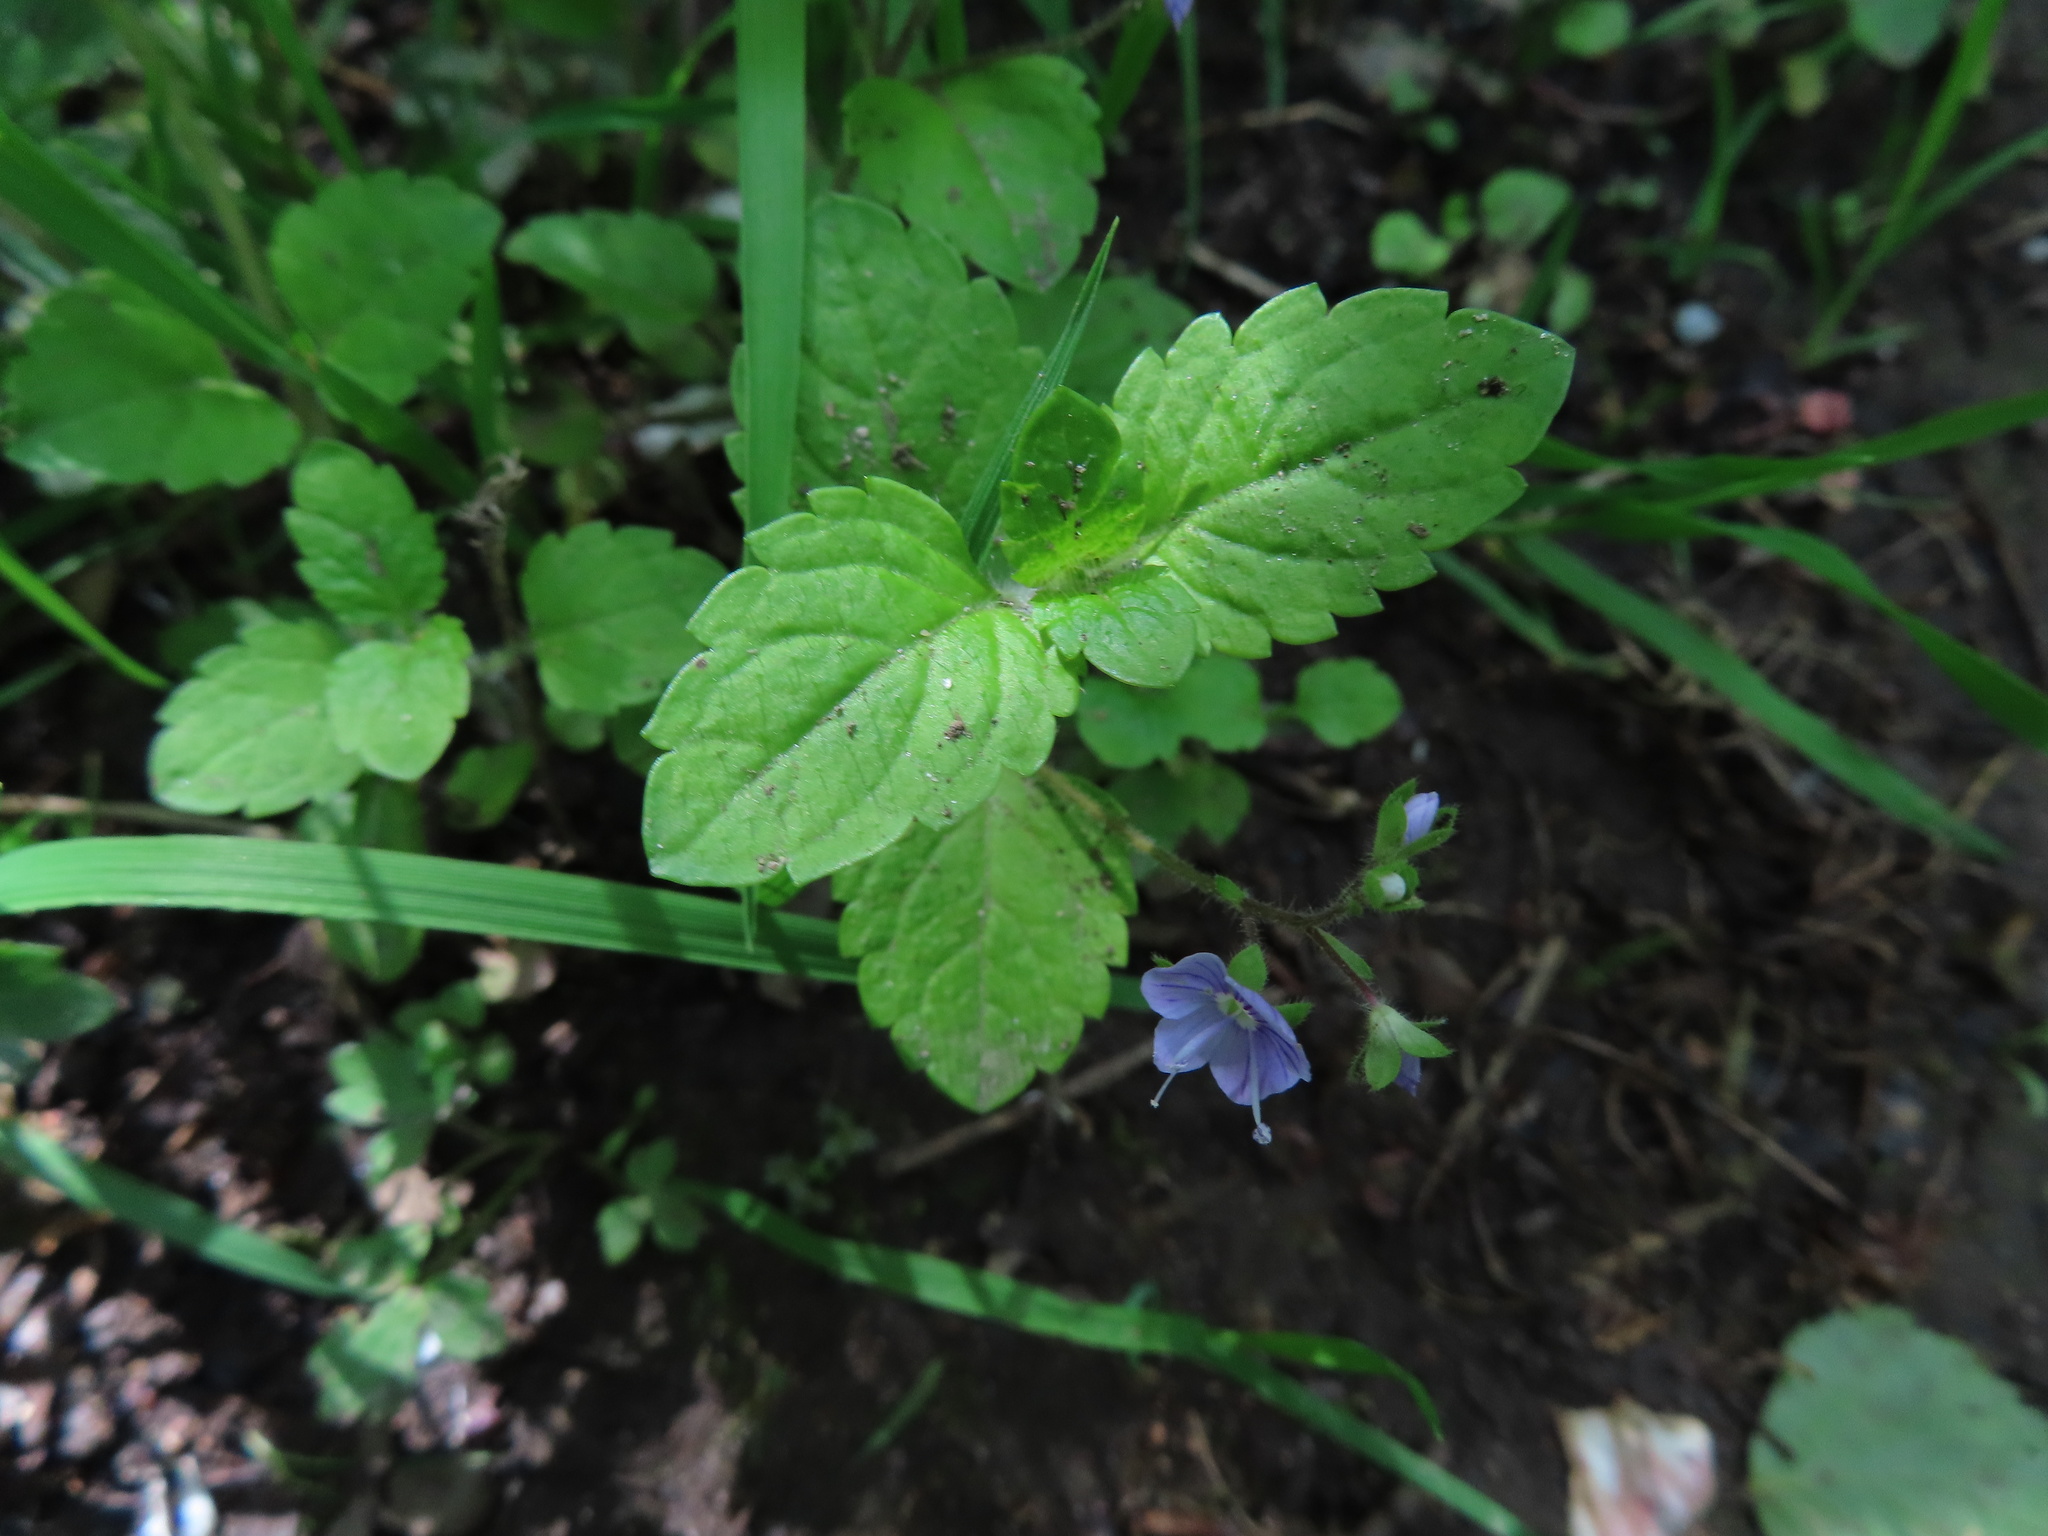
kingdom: Plantae
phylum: Tracheophyta
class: Magnoliopsida
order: Lamiales
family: Plantaginaceae
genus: Veronica
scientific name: Veronica montana
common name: Wood speedwell
